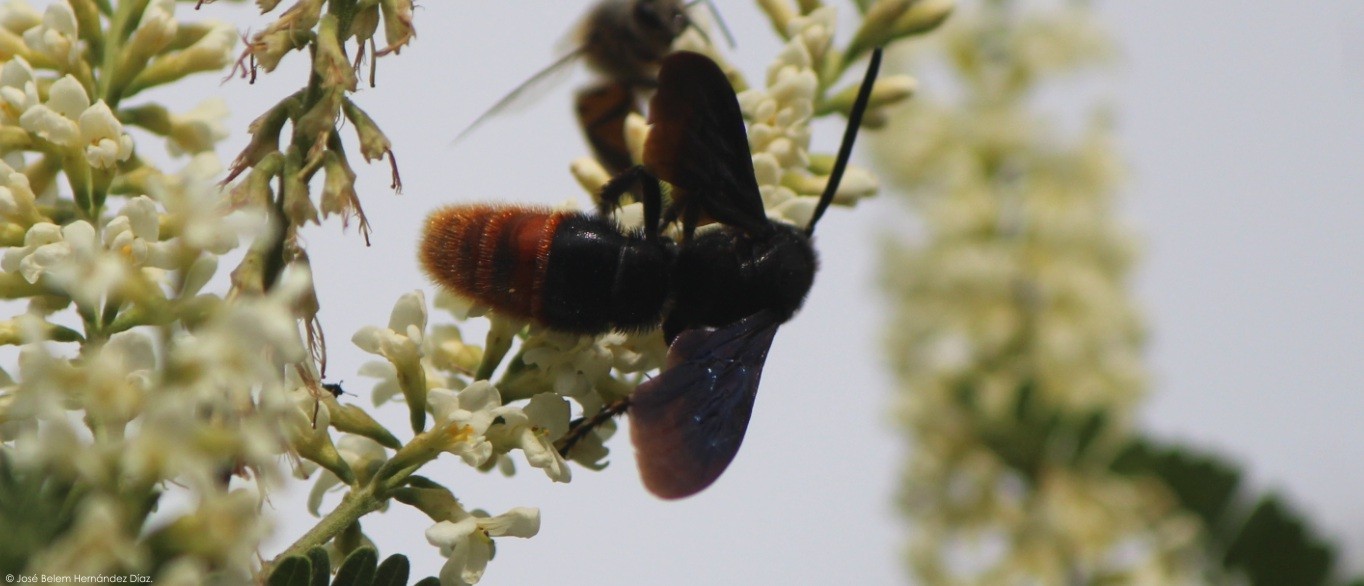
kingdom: Animalia
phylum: Arthropoda
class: Insecta
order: Hymenoptera
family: Scoliidae
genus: Triscolia
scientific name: Triscolia ardens
